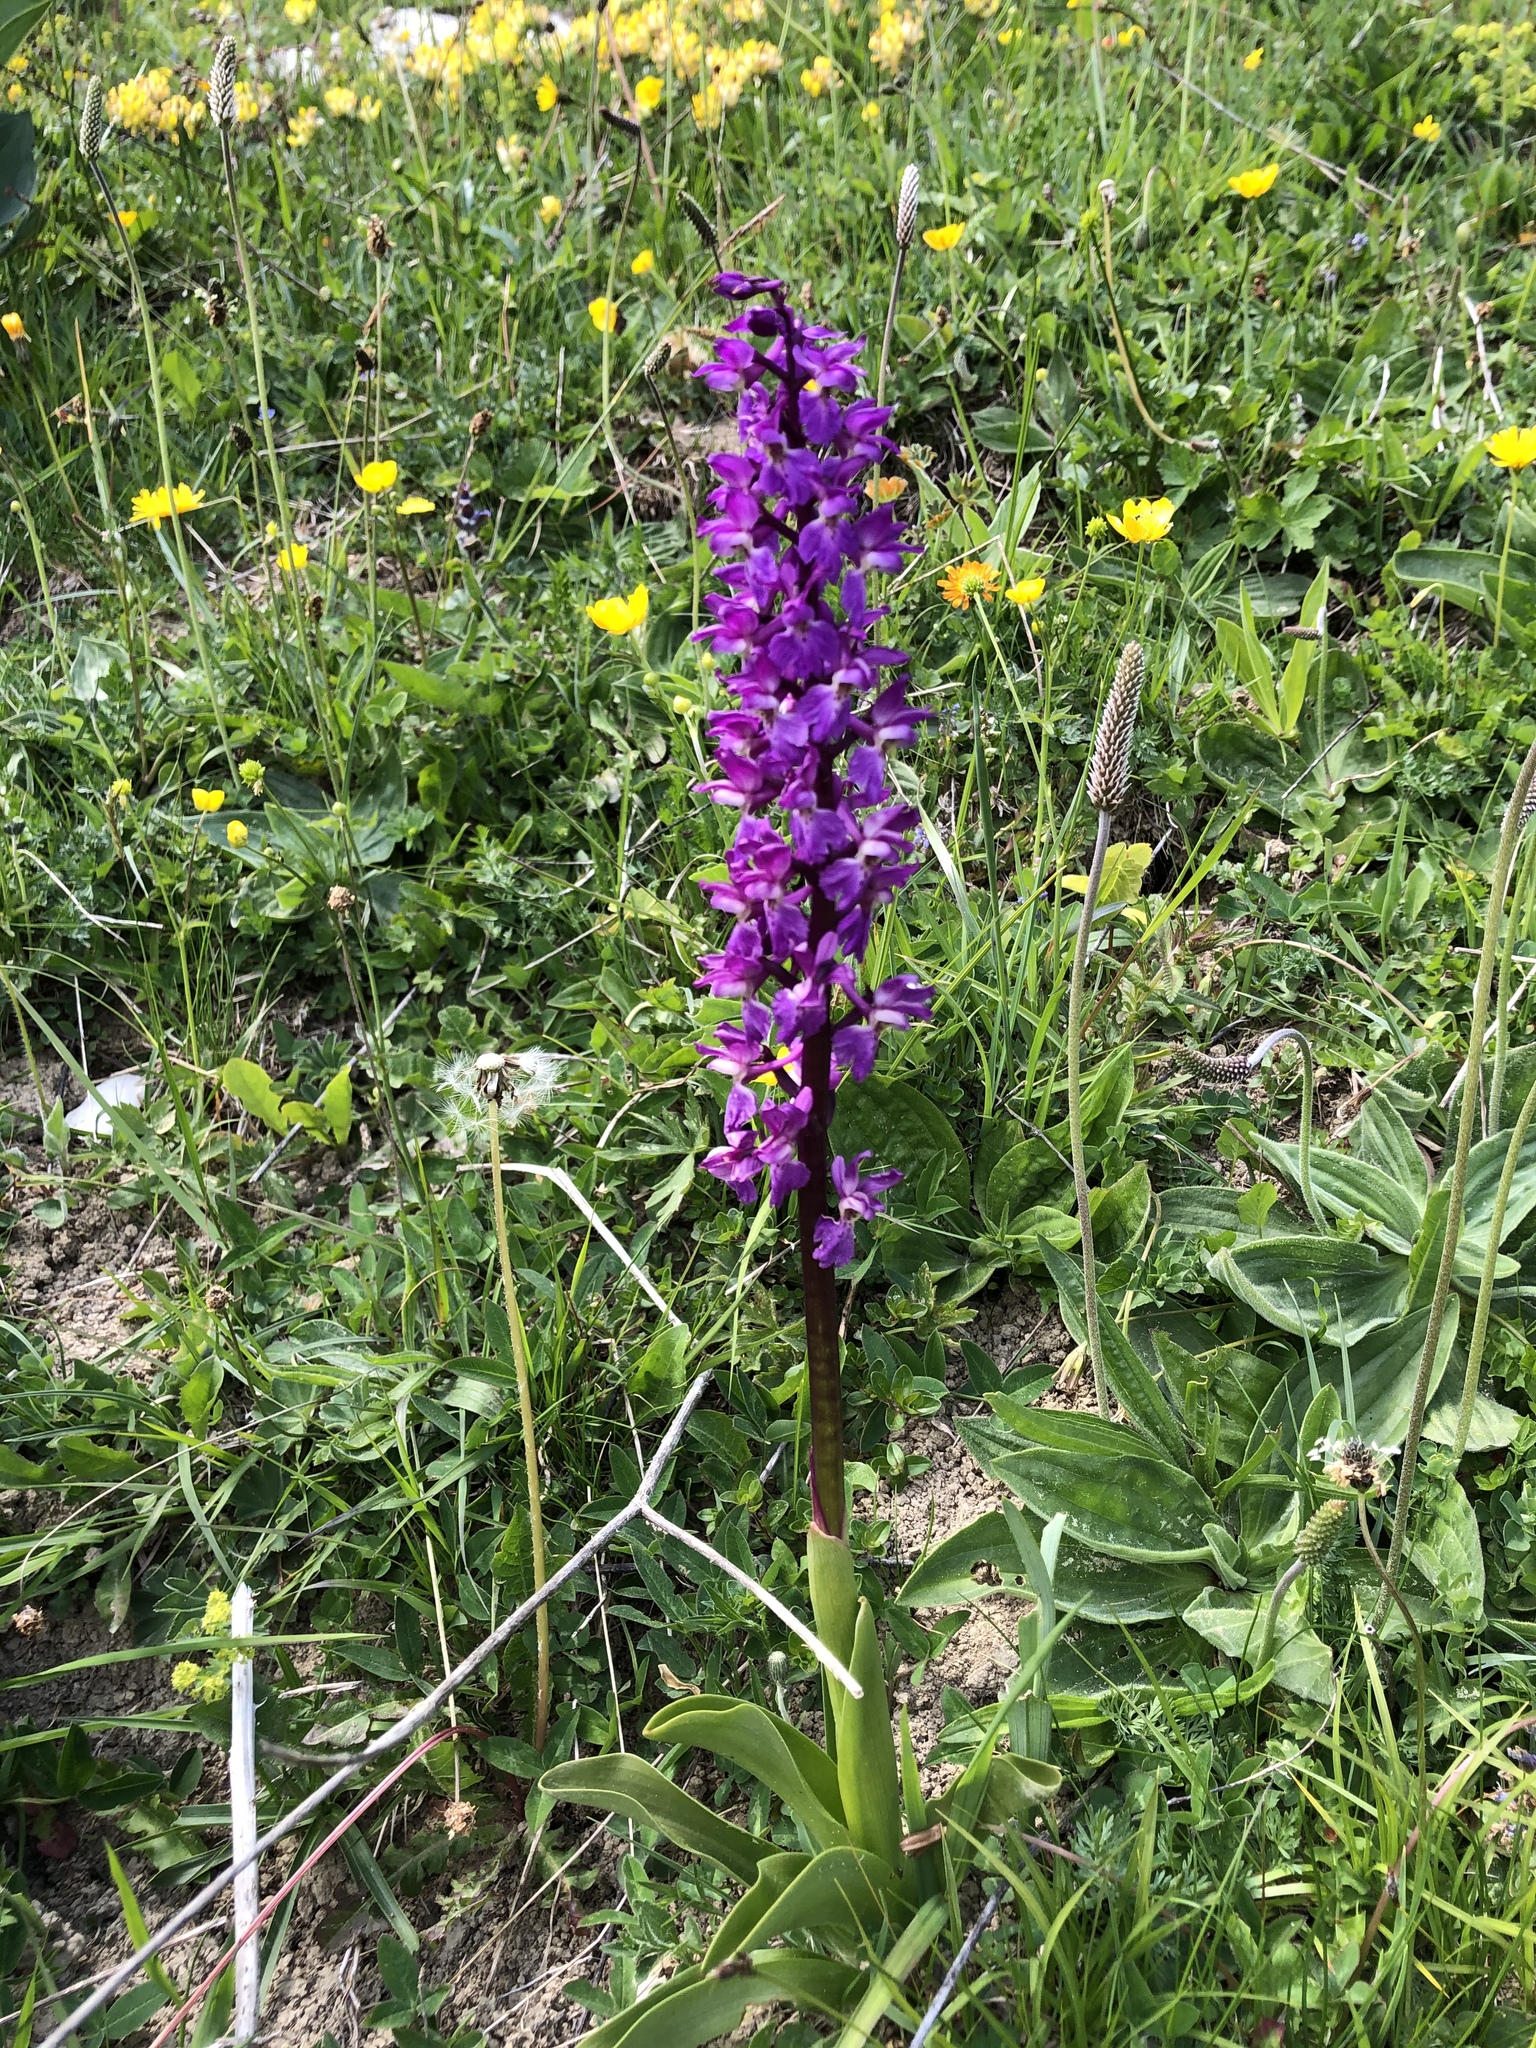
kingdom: Plantae
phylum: Tracheophyta
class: Liliopsida
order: Asparagales
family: Orchidaceae
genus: Orchis
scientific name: Orchis mascula
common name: Early-purple orchid
